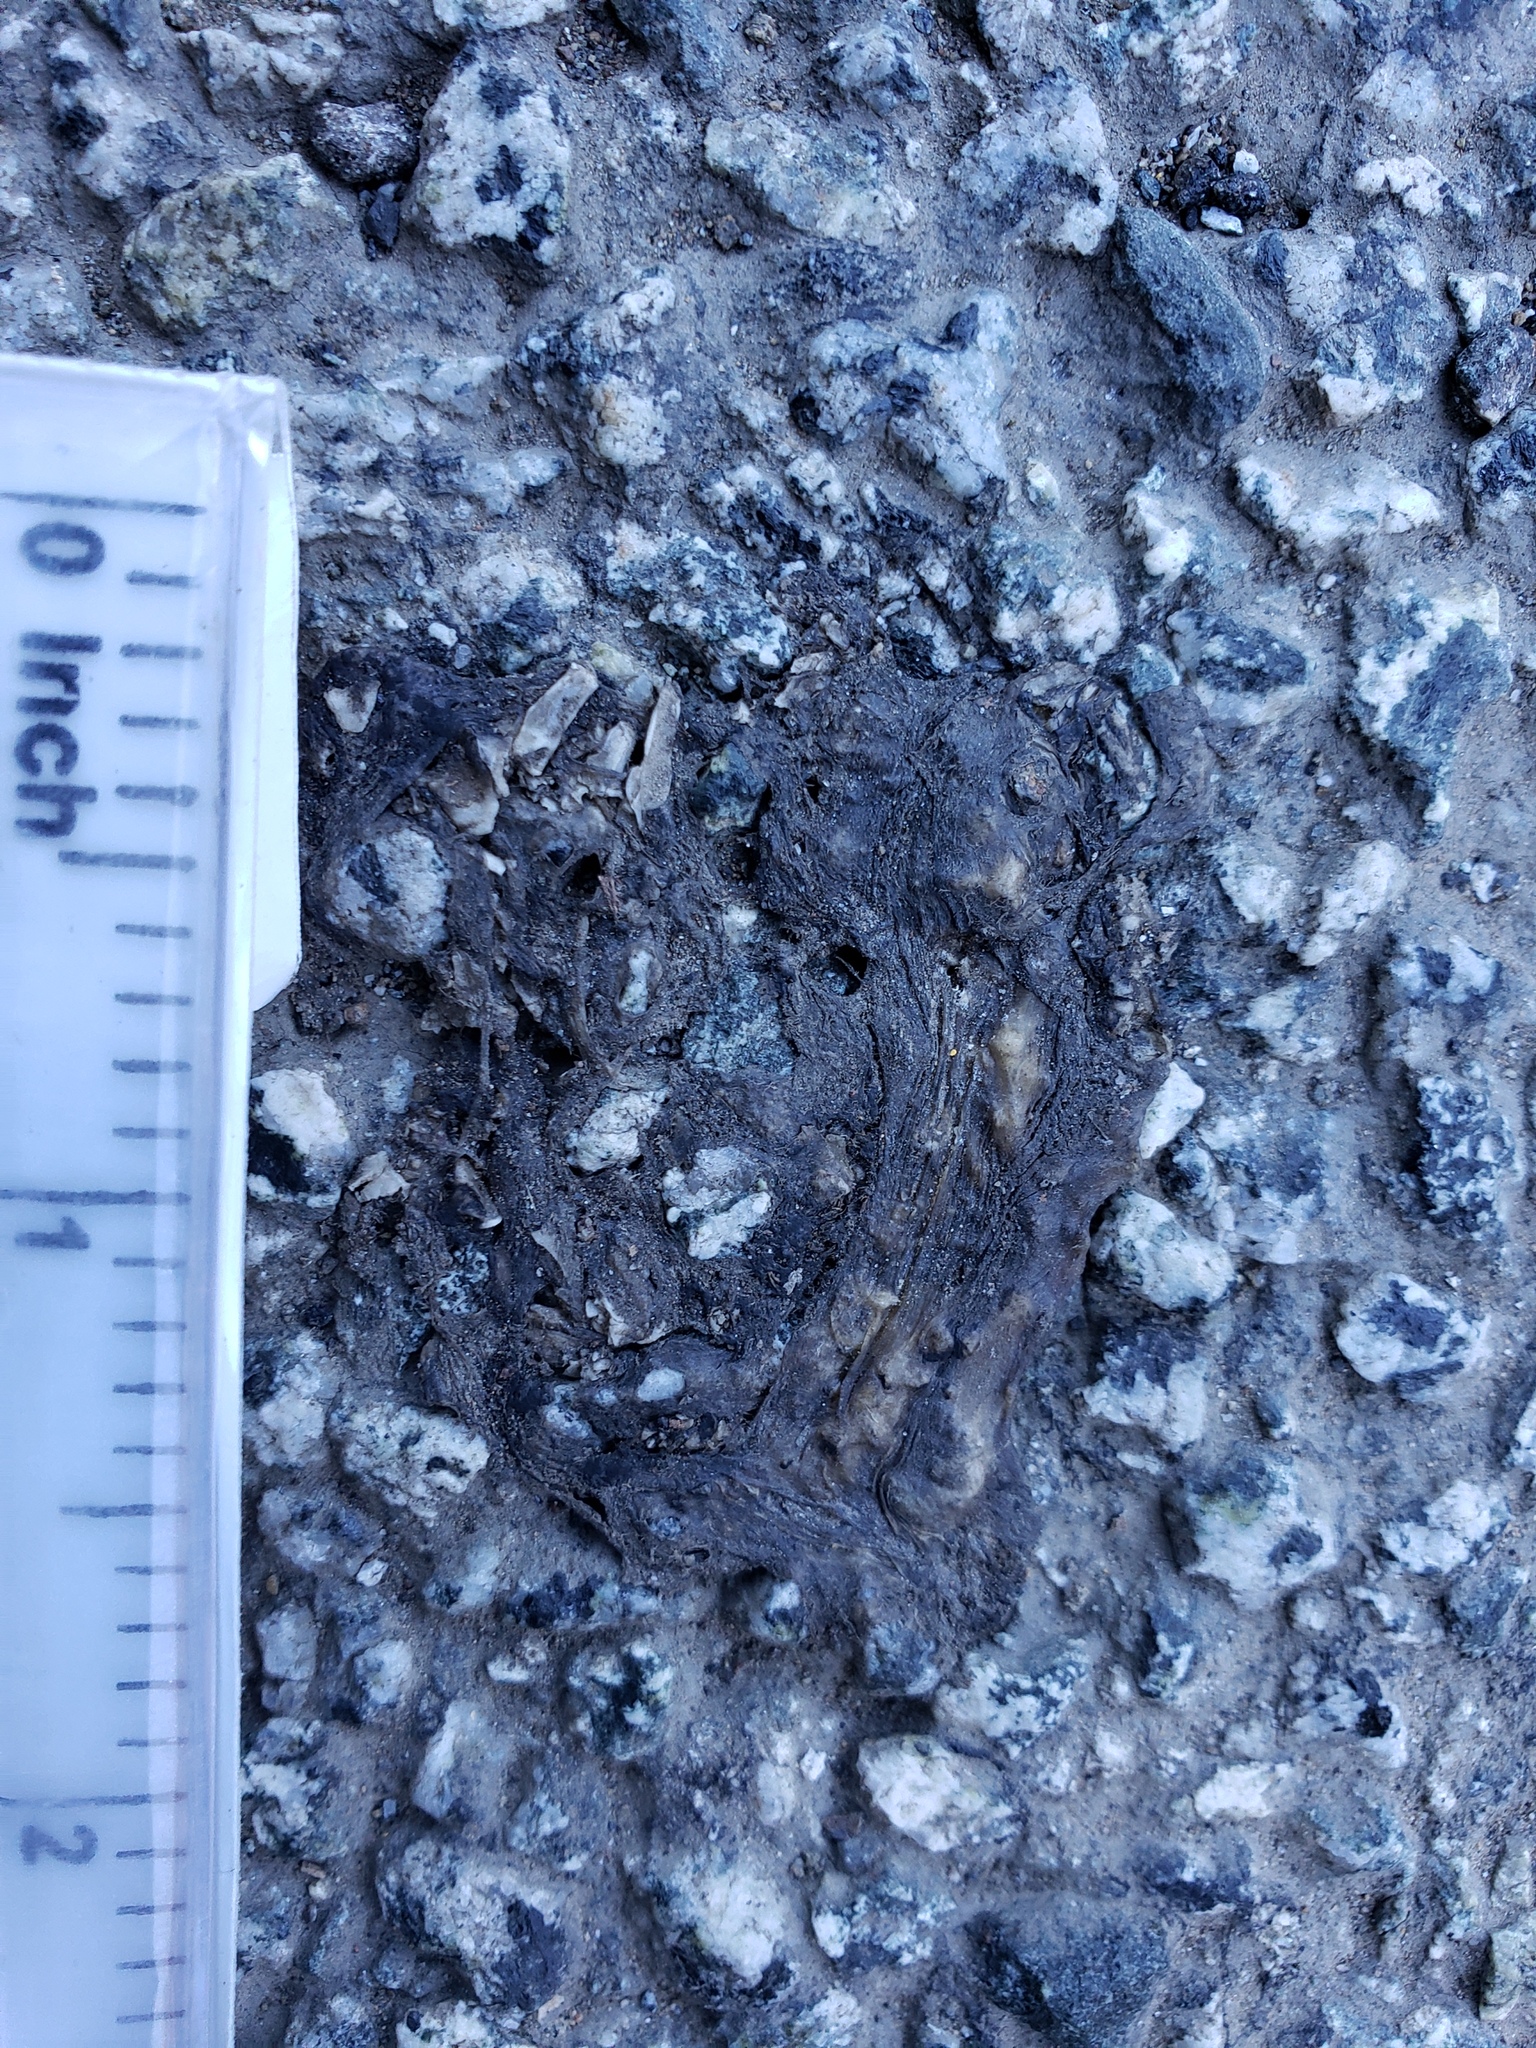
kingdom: Animalia
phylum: Chordata
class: Amphibia
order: Caudata
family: Salamandridae
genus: Taricha
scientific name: Taricha
